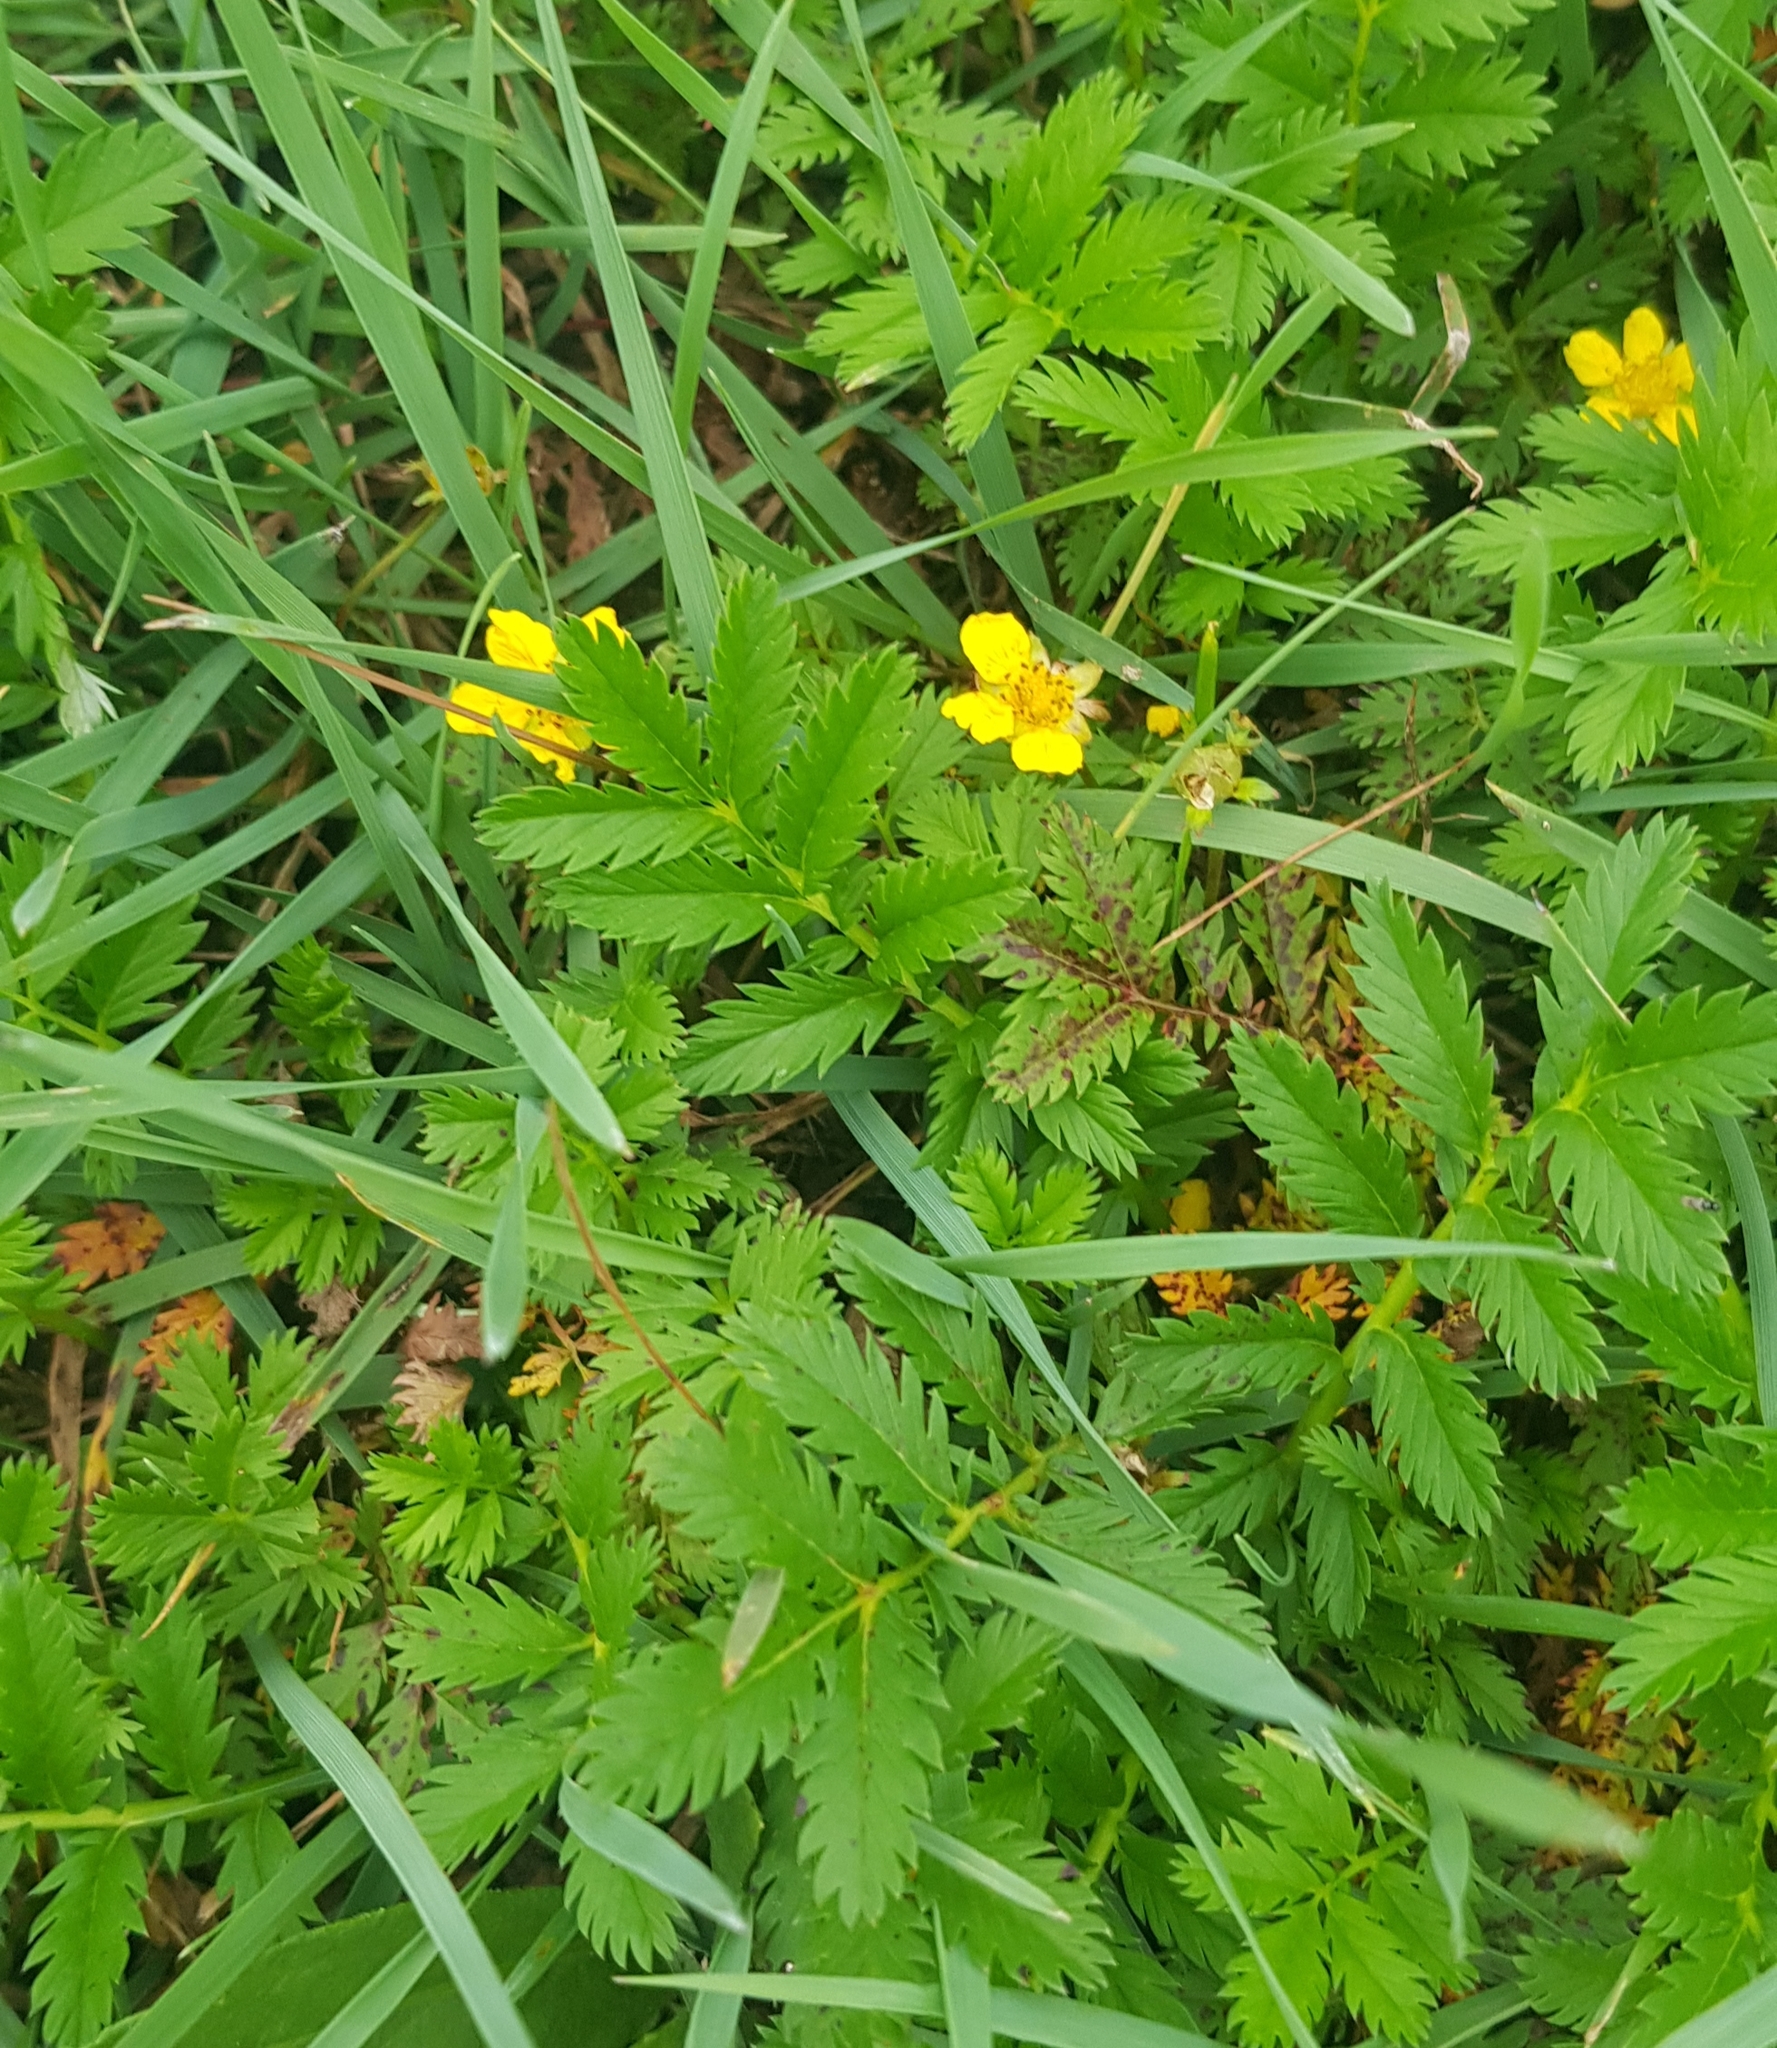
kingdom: Plantae
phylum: Tracheophyta
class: Magnoliopsida
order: Rosales
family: Rosaceae
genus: Argentina
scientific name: Argentina anserina
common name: Common silverweed
